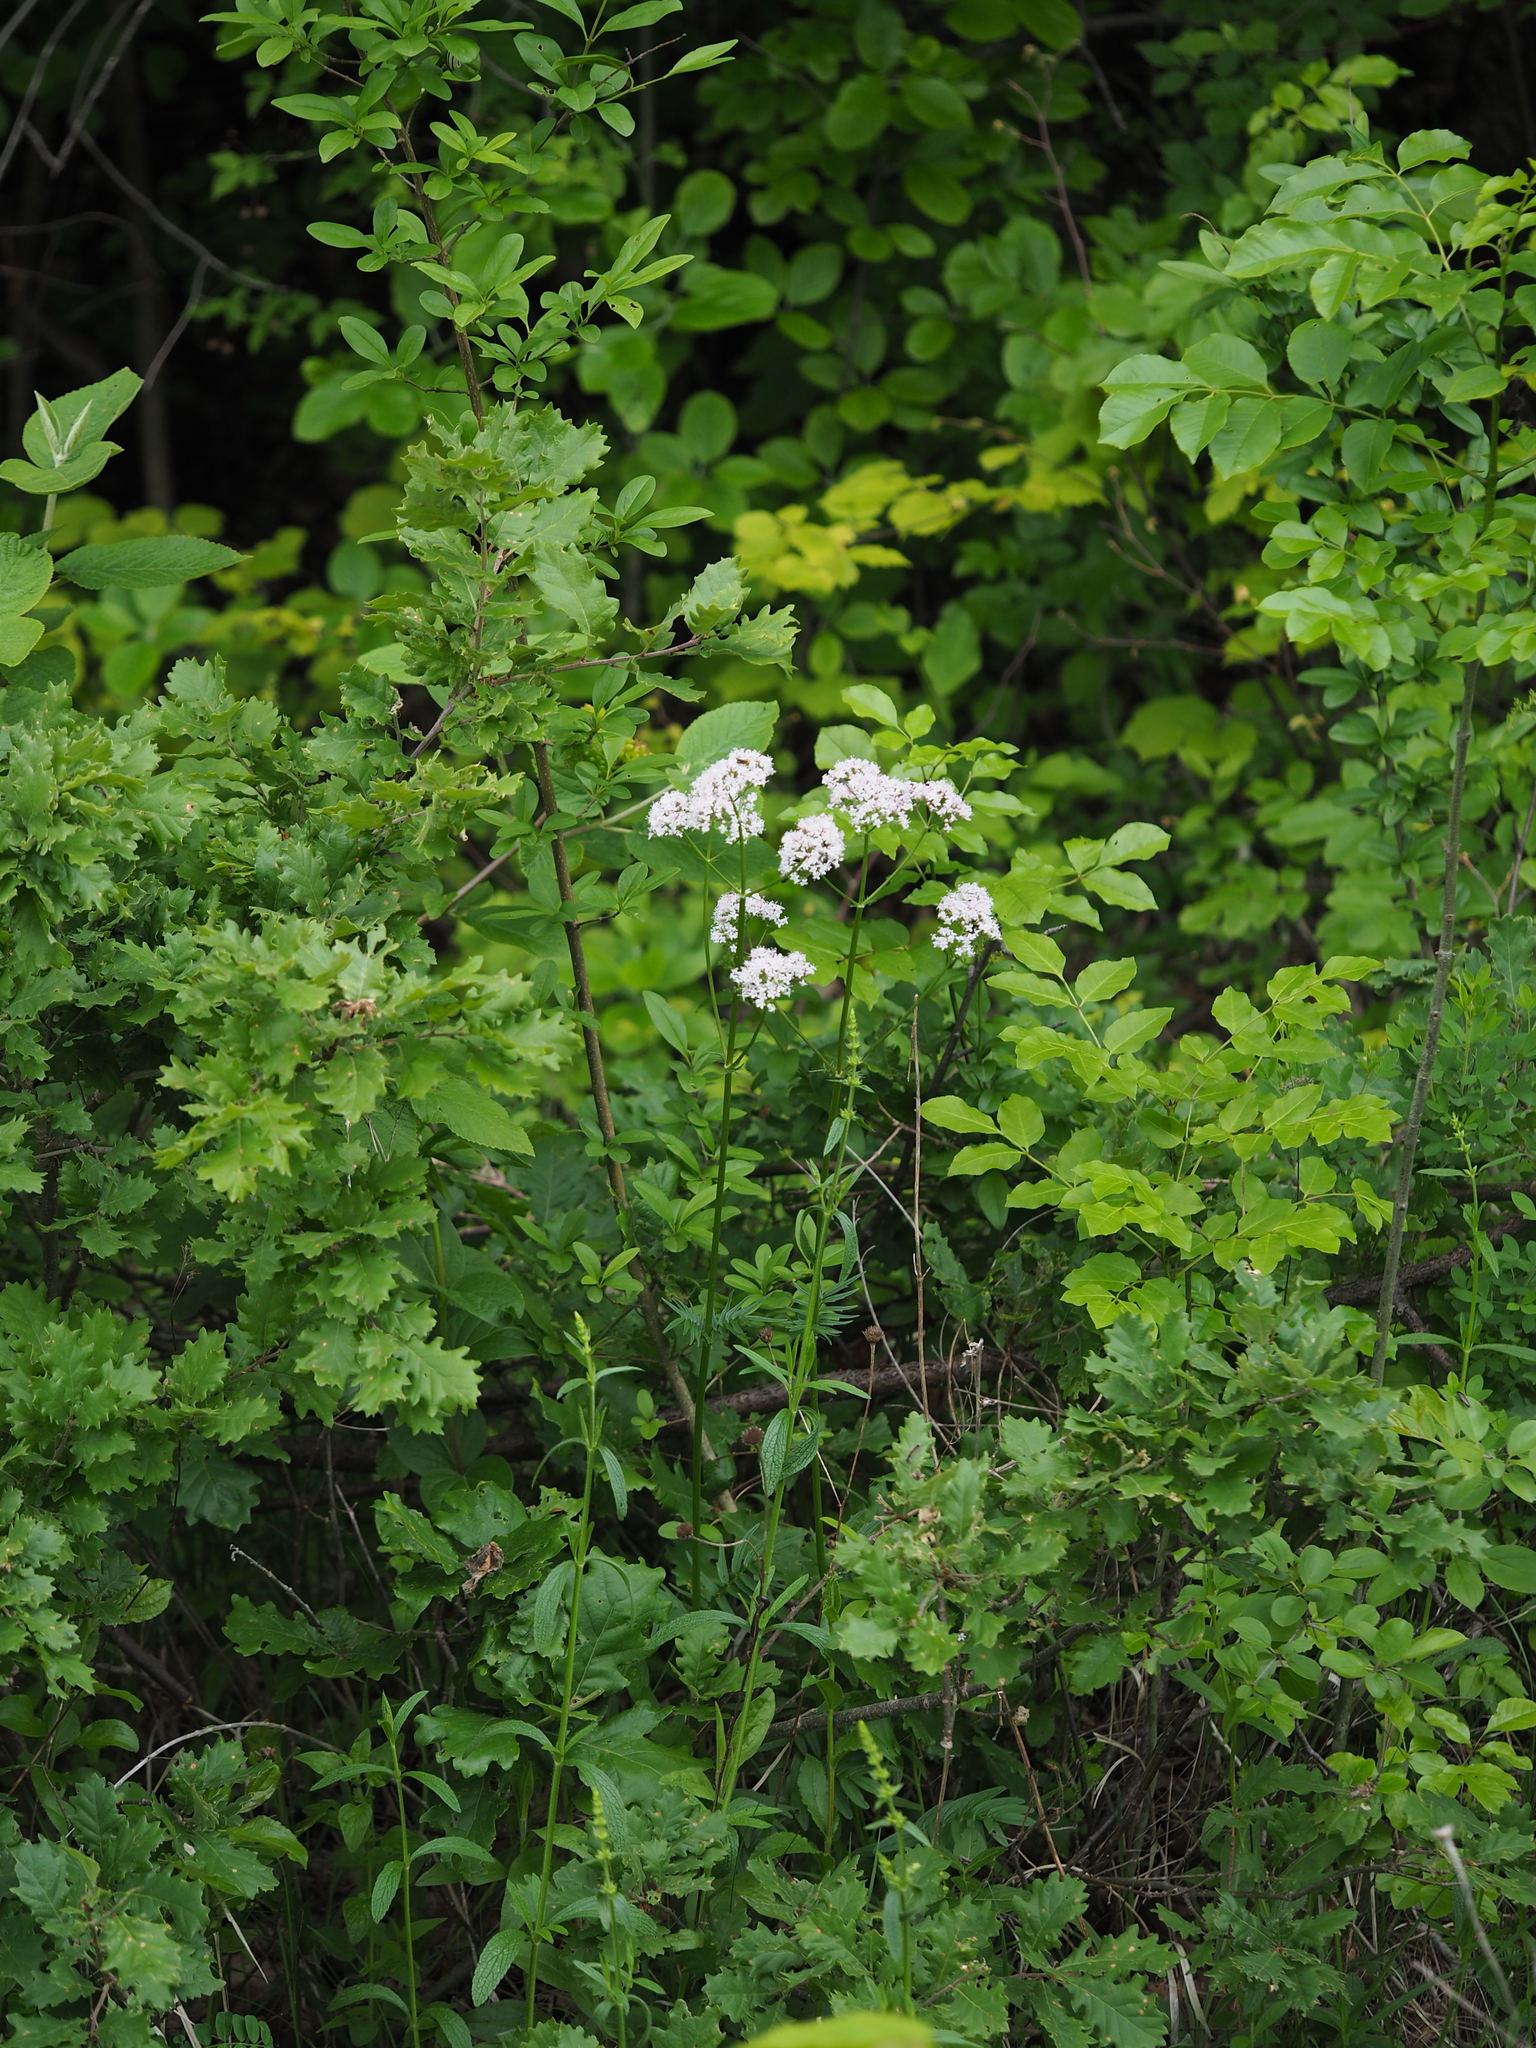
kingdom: Plantae
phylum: Tracheophyta
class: Magnoliopsida
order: Dipsacales
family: Caprifoliaceae
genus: Valeriana
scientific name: Valeriana pratensis
